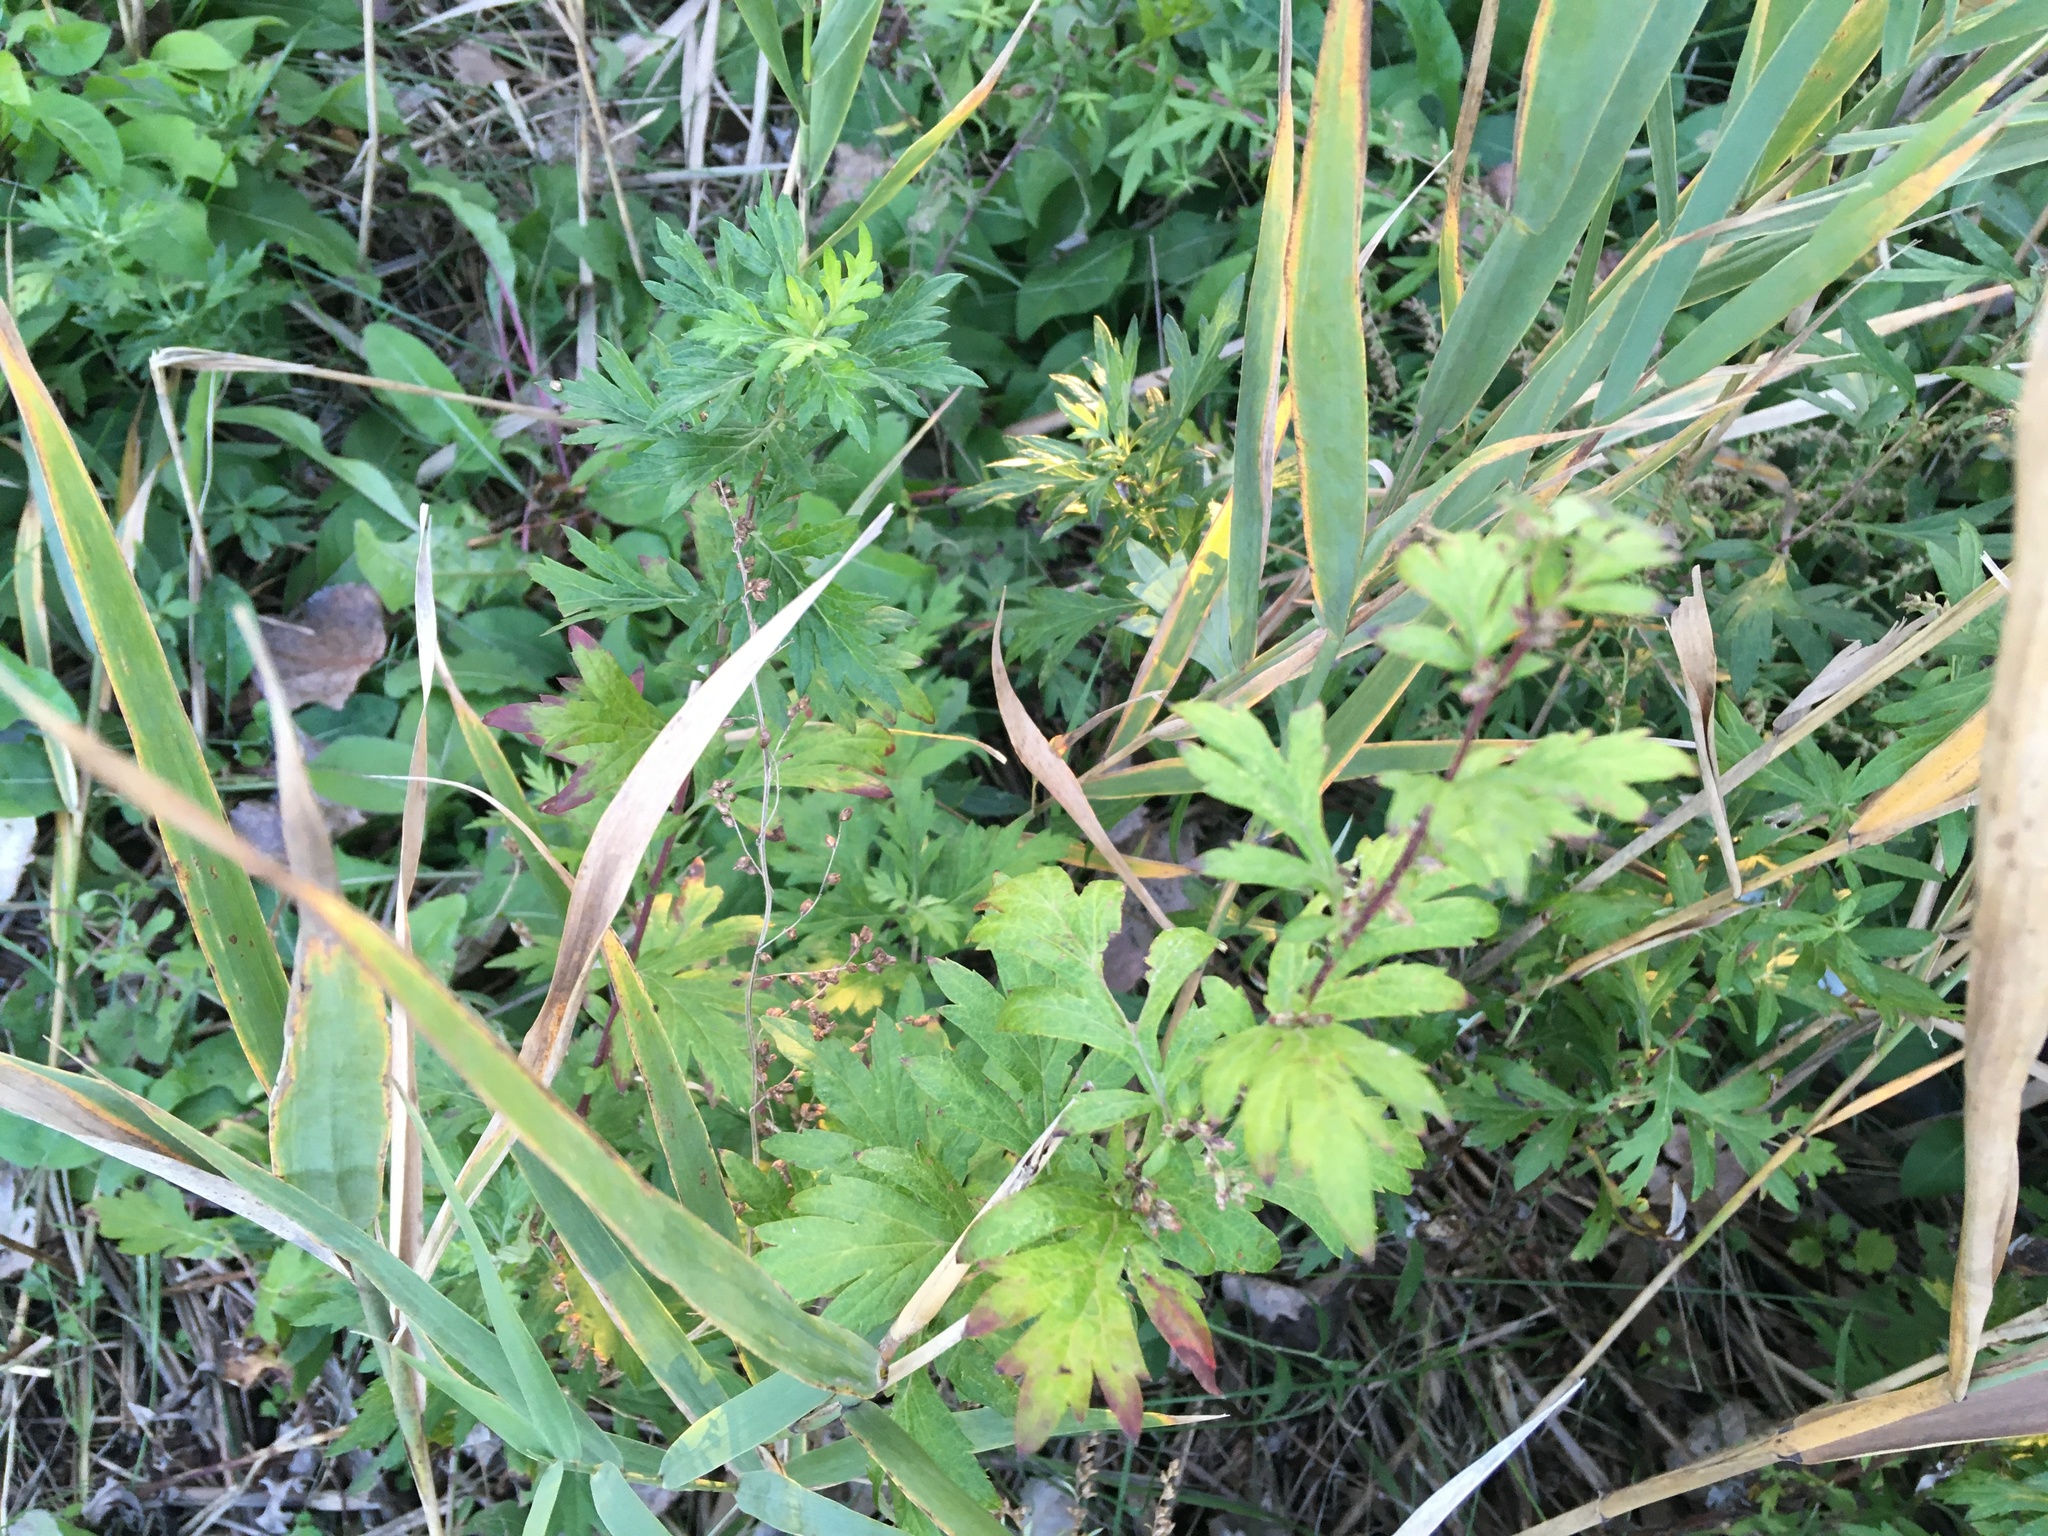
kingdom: Plantae
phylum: Tracheophyta
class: Magnoliopsida
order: Asterales
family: Asteraceae
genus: Artemisia
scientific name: Artemisia vulgaris
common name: Mugwort
